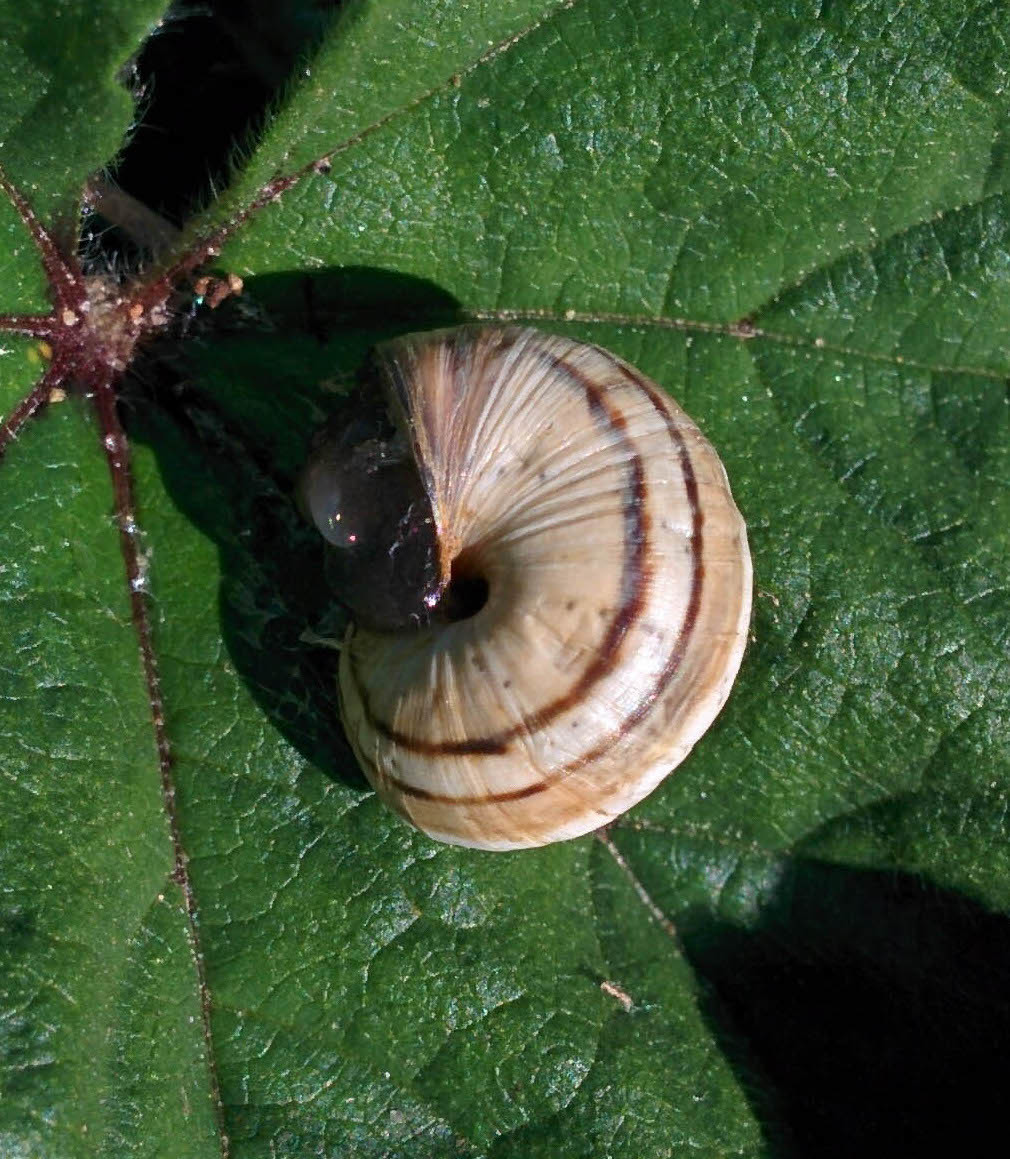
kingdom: Animalia
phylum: Mollusca
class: Gastropoda
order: Stylommatophora
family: Helicidae
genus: Theba
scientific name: Theba pisana
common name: White snail
